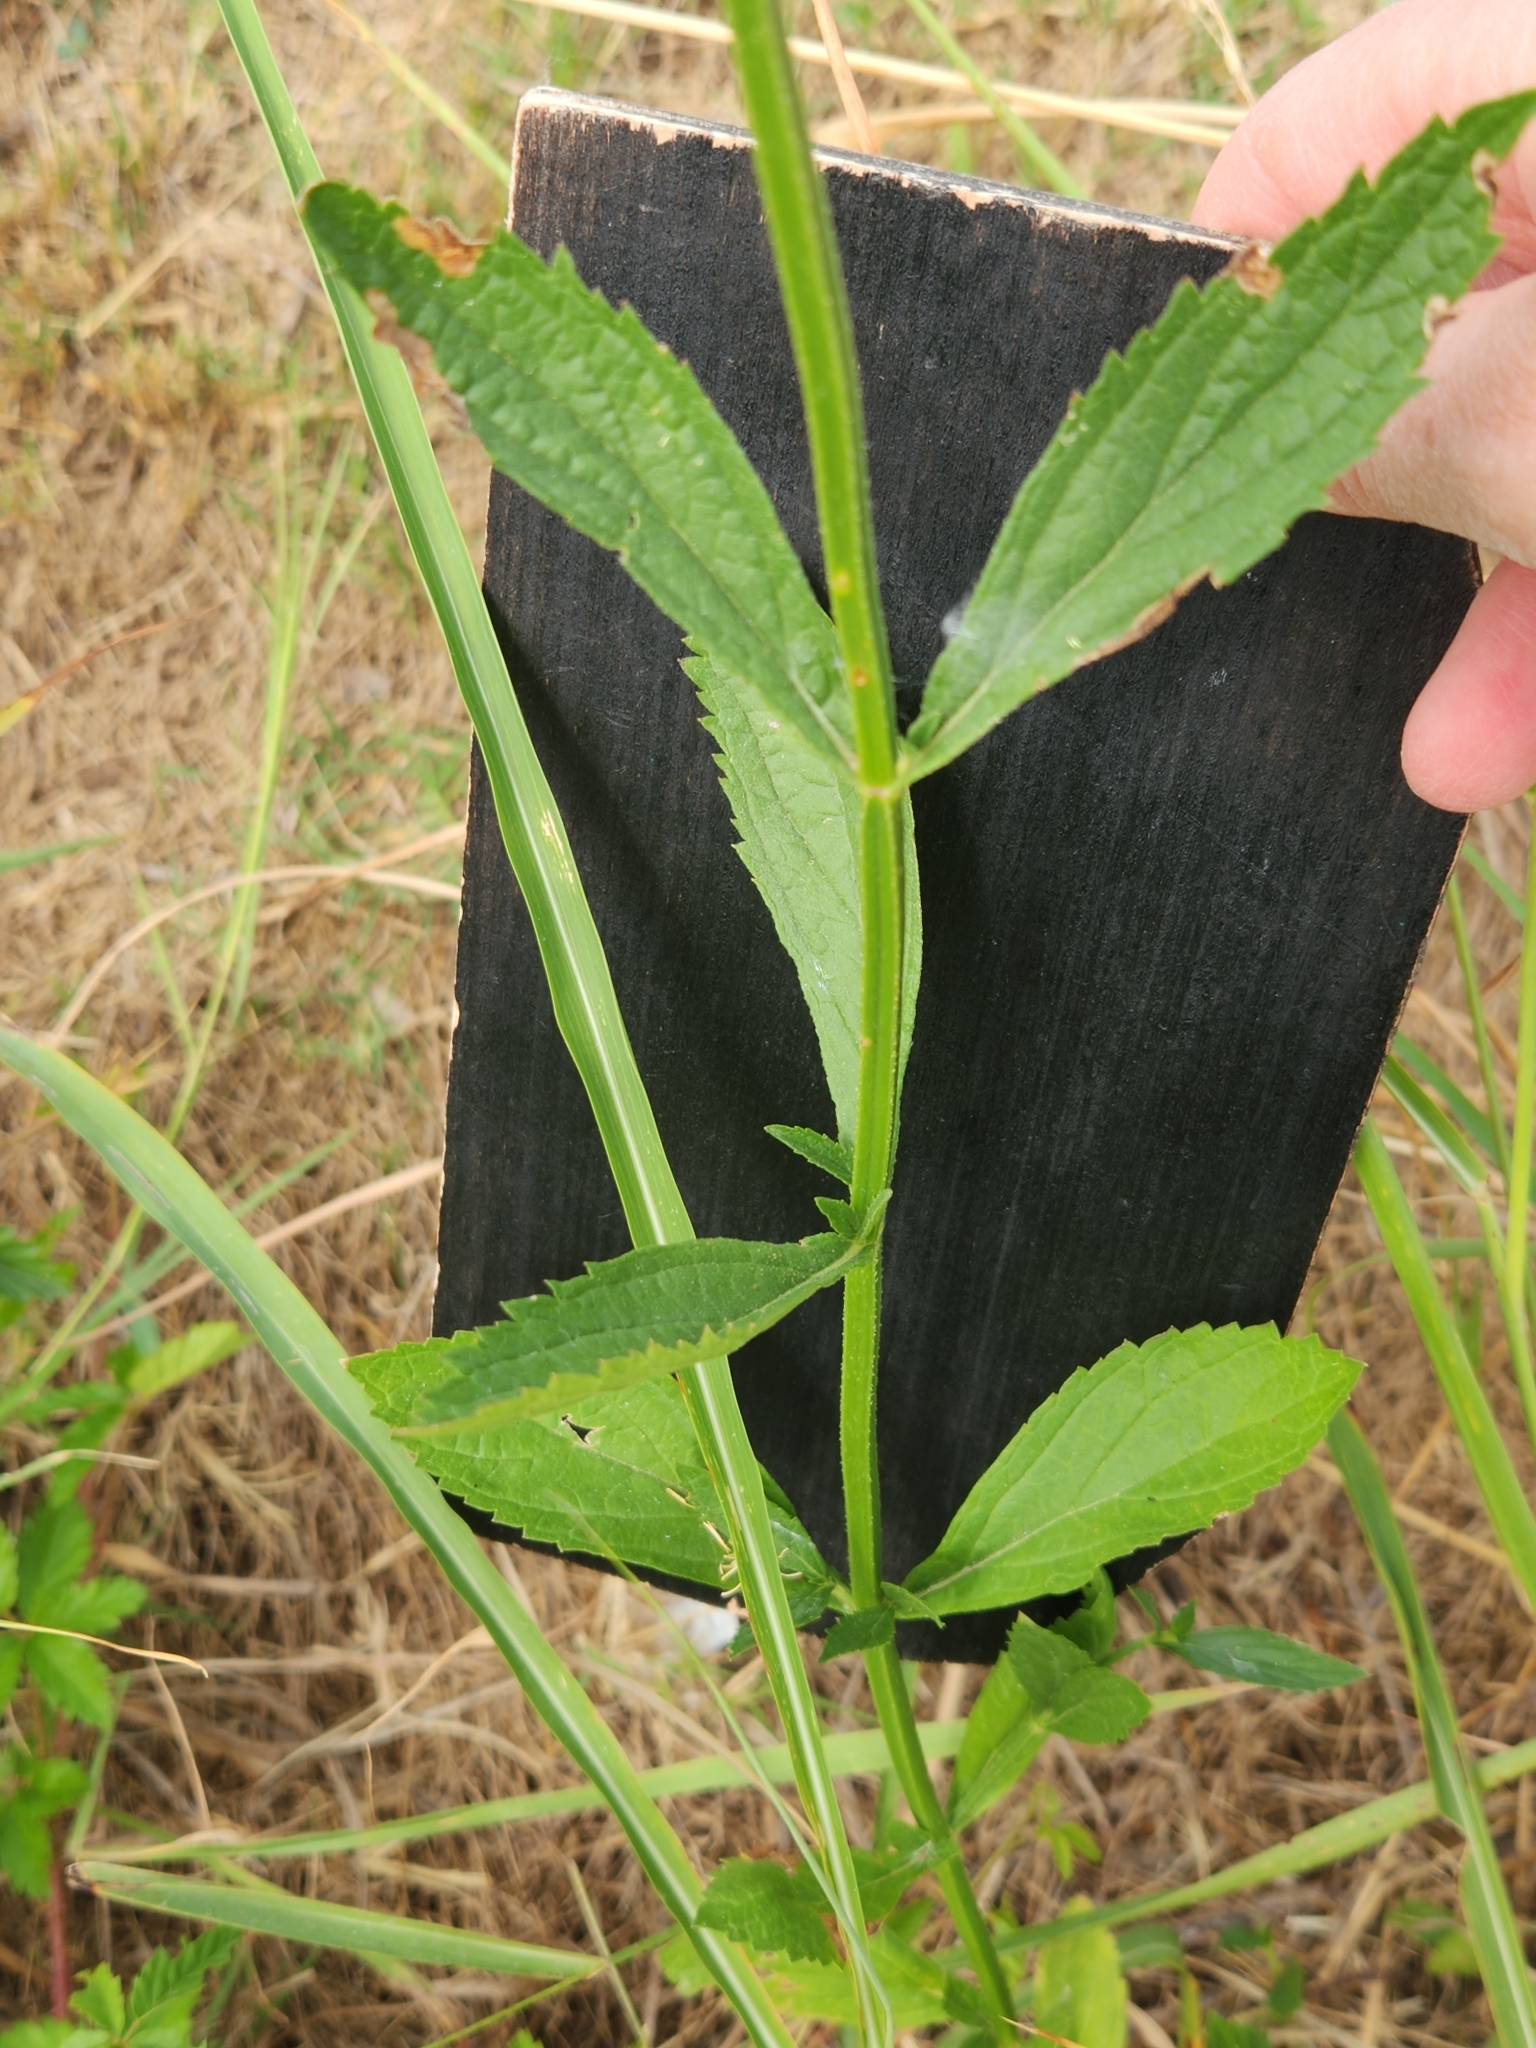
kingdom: Plantae
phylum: Tracheophyta
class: Magnoliopsida
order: Lamiales
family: Verbenaceae
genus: Verbena
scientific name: Verbena brasiliensis
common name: Brazilian vervain
